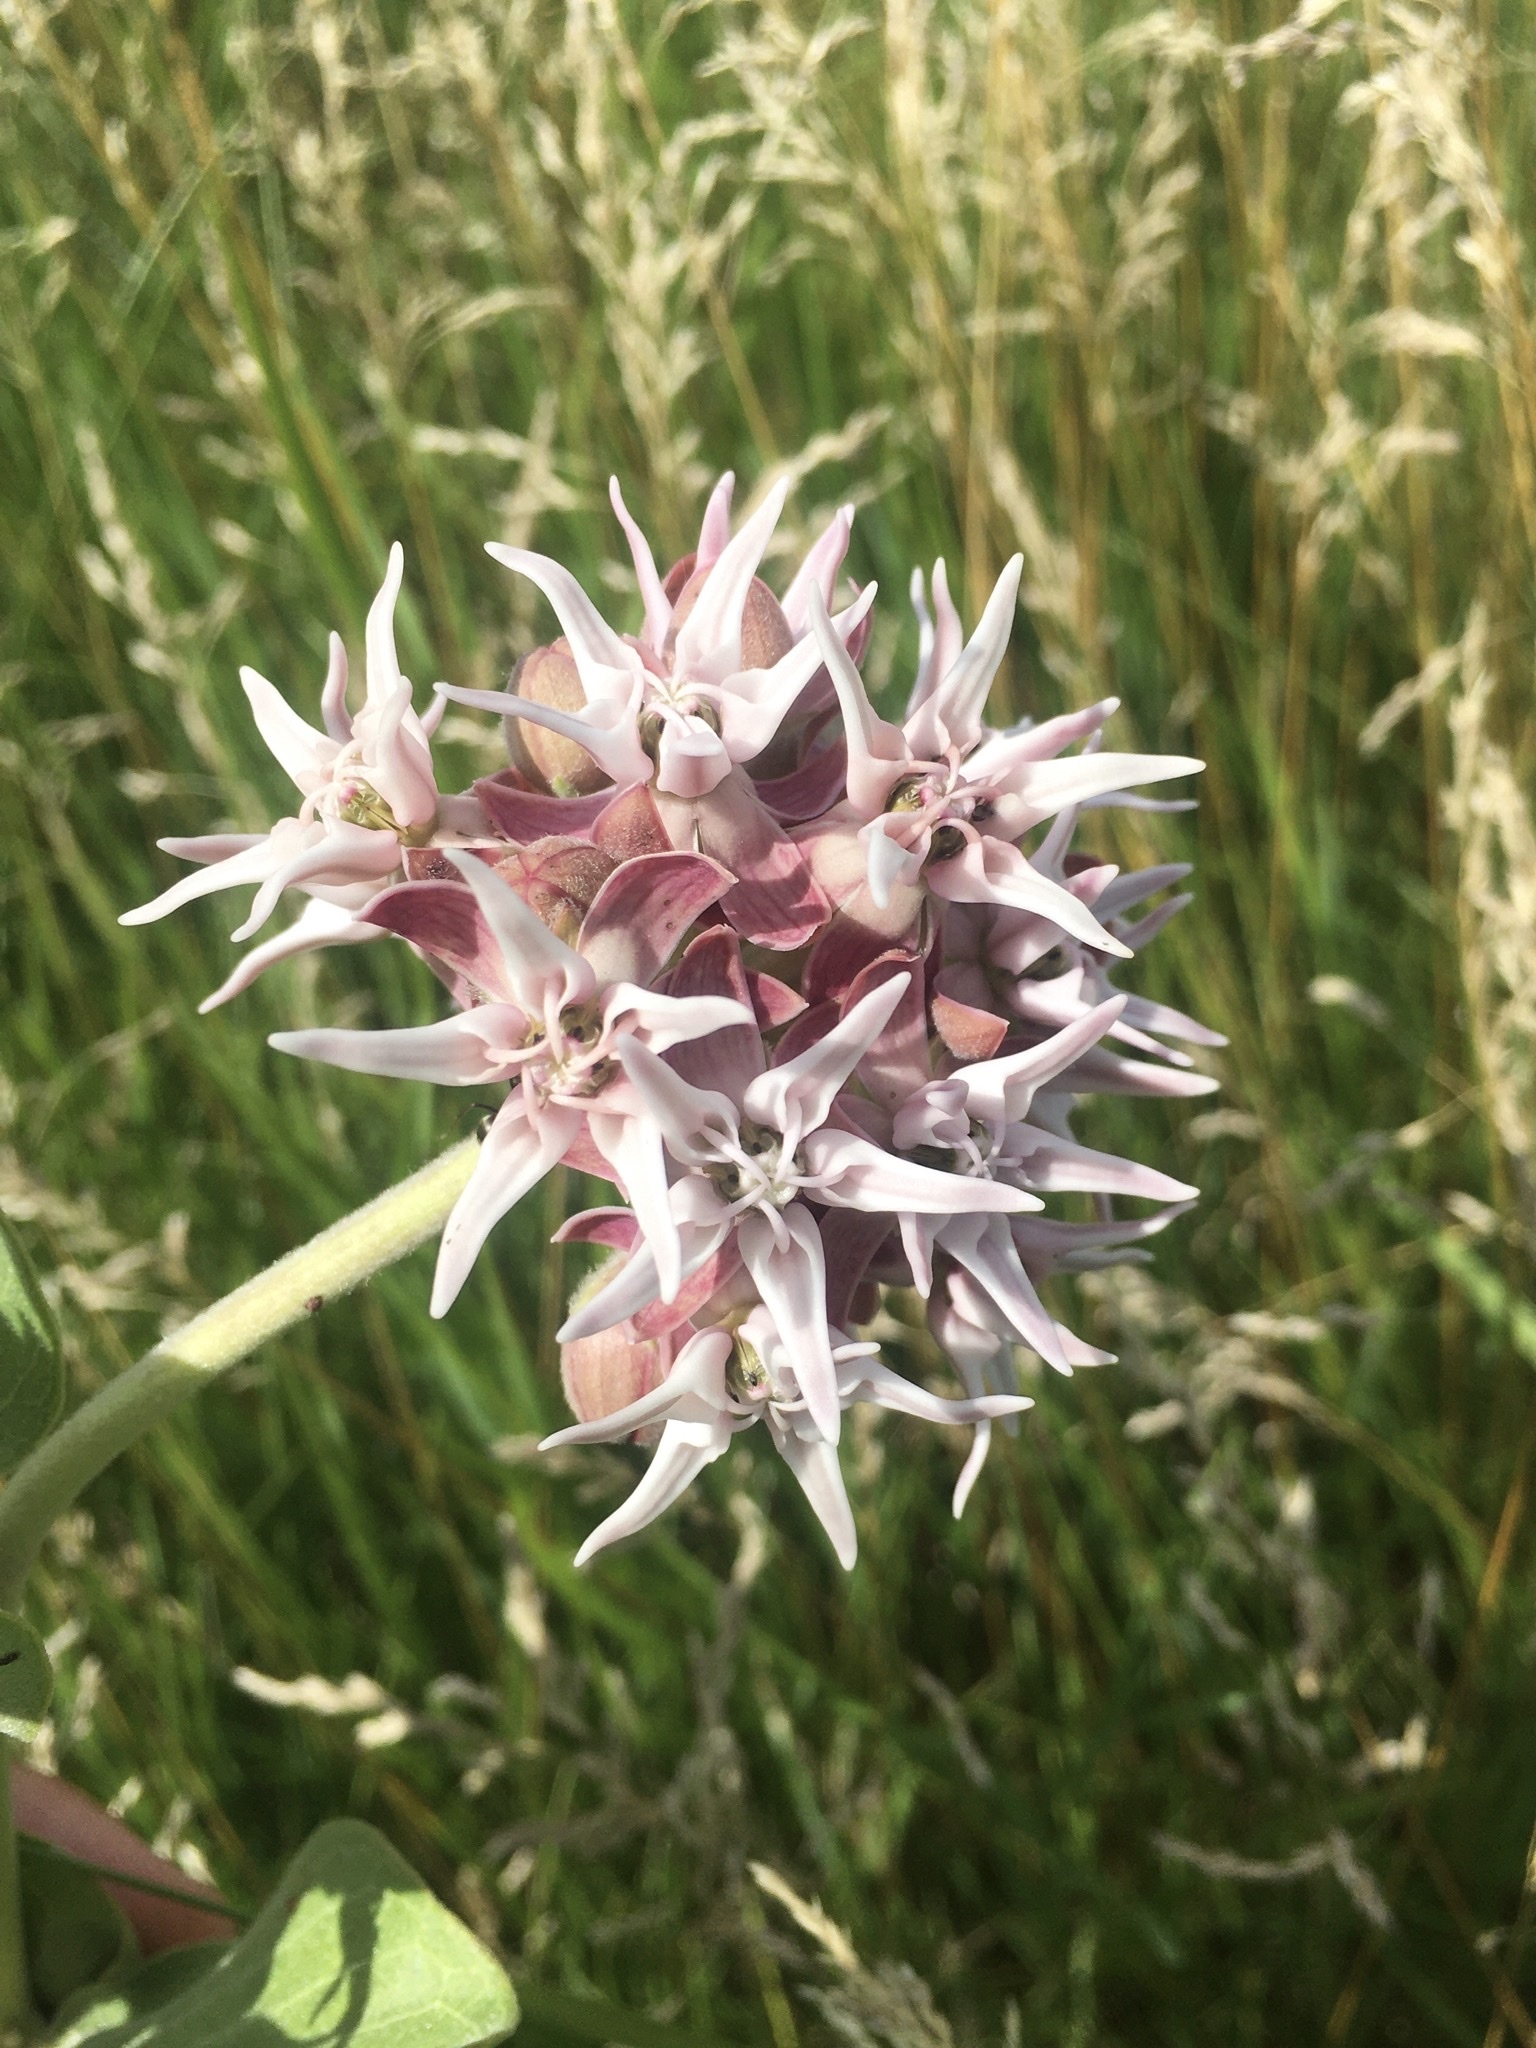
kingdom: Plantae
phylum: Tracheophyta
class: Magnoliopsida
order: Gentianales
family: Apocynaceae
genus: Asclepias
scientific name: Asclepias speciosa
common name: Showy milkweed
